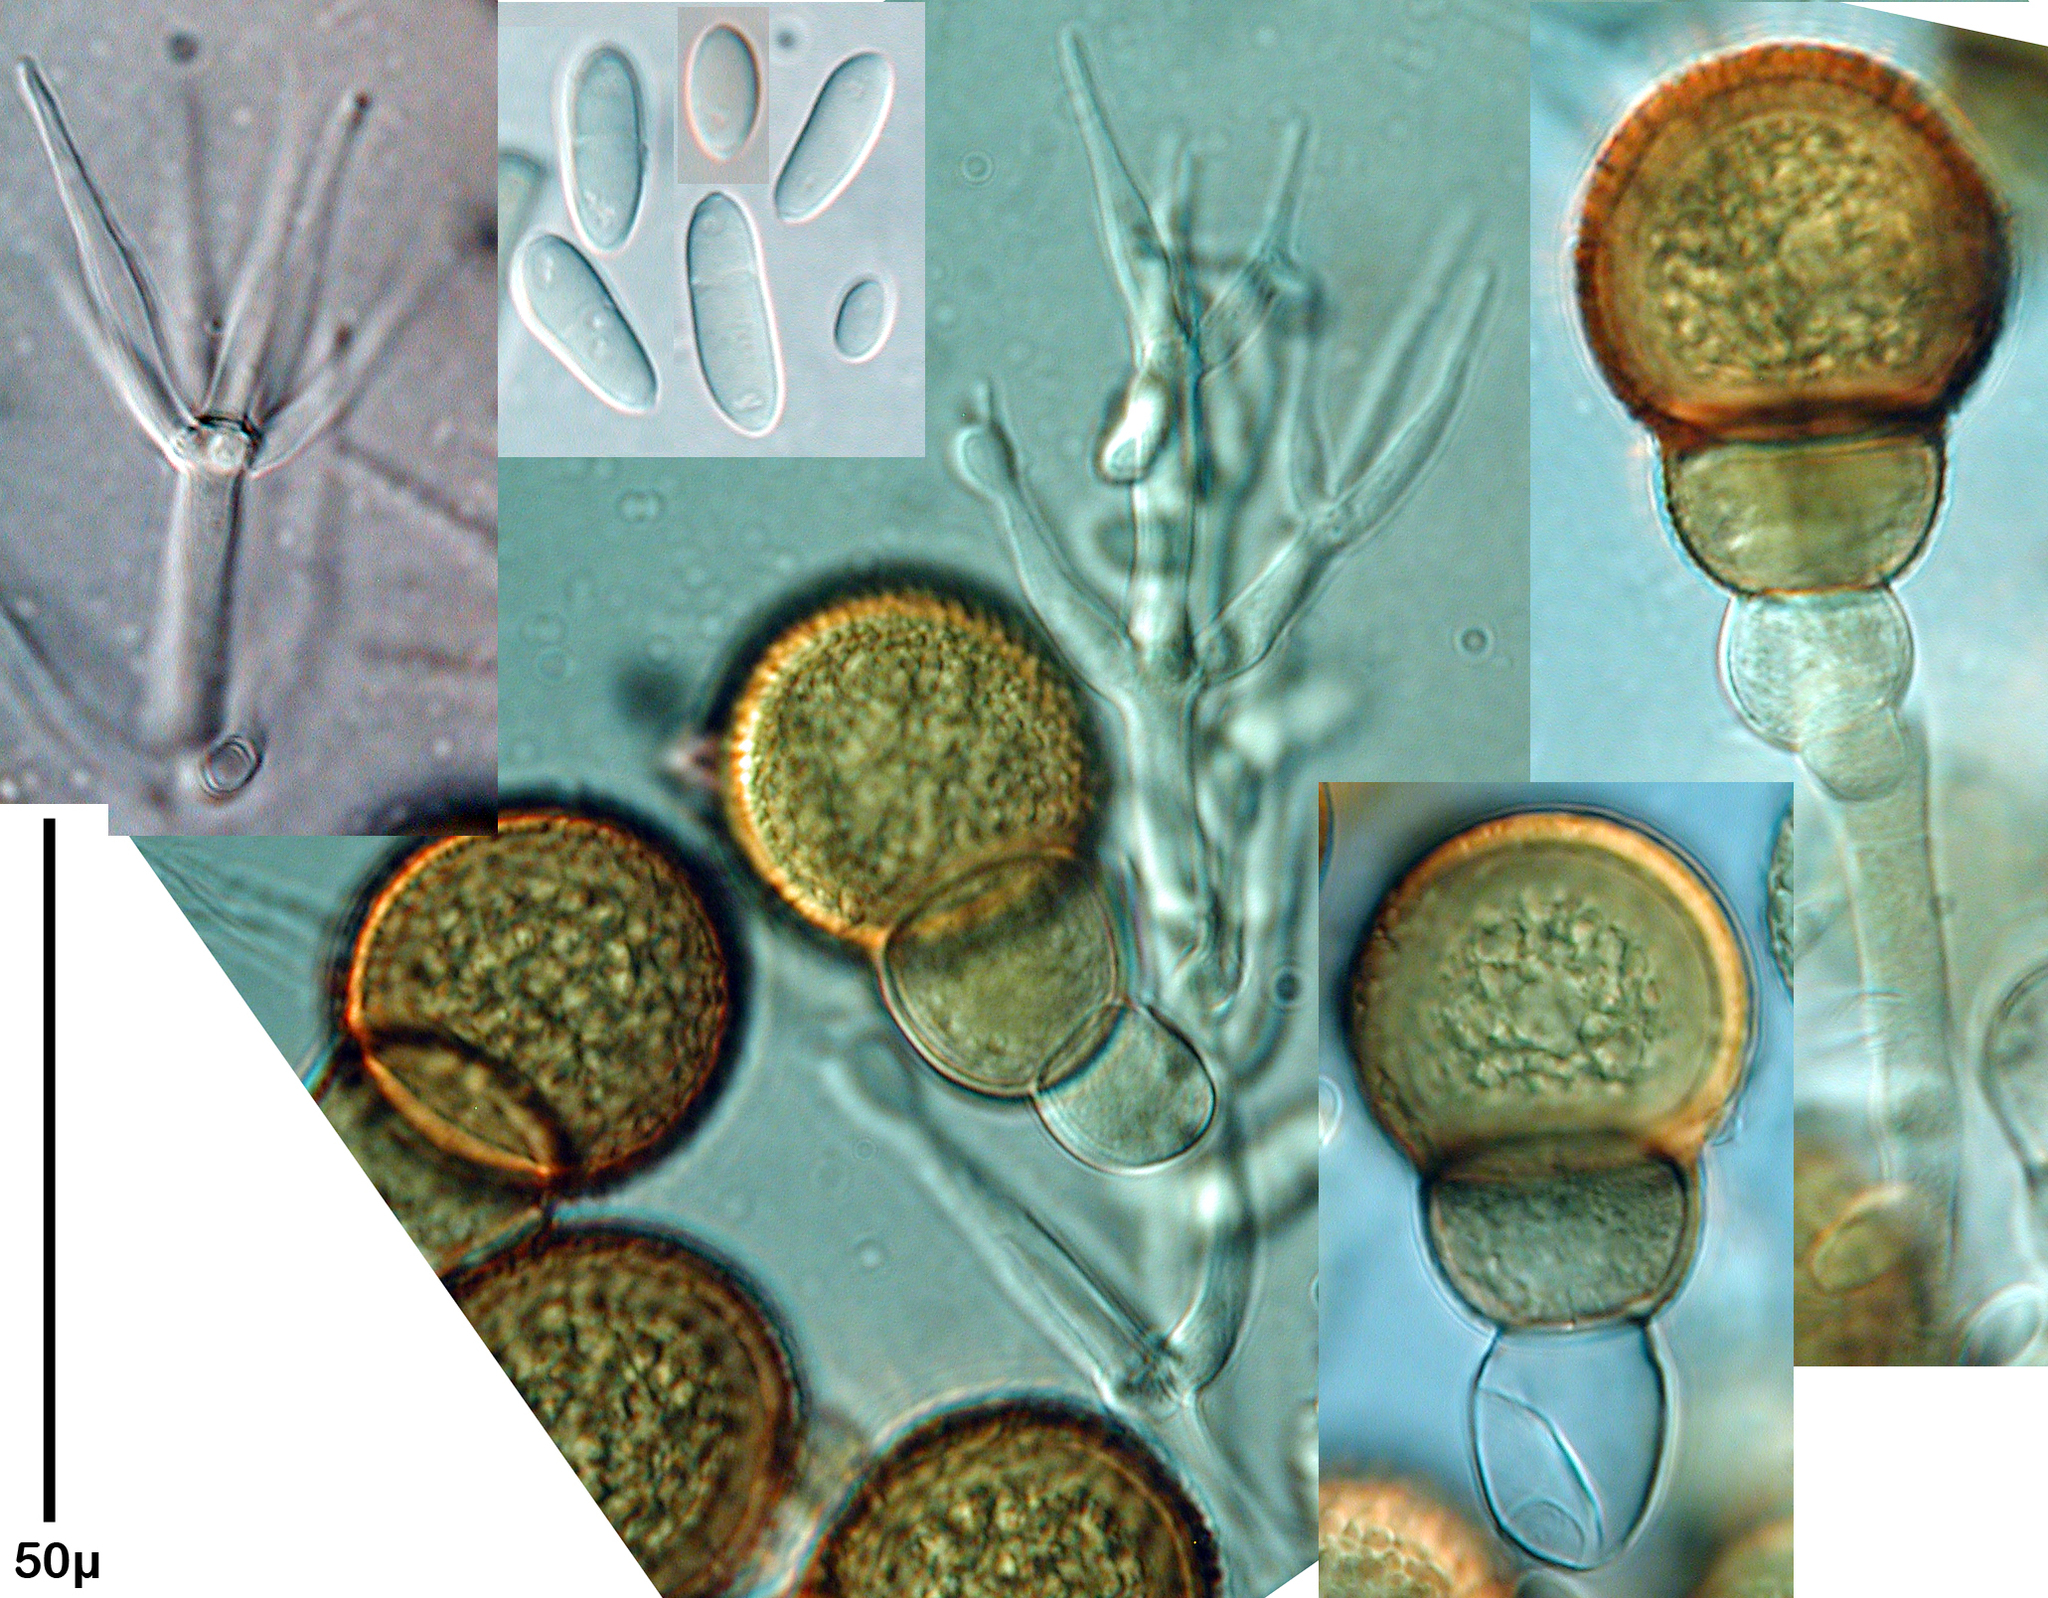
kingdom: Fungi
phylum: Ascomycota
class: Sordariomycetes
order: Hypocreales
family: Hypocreaceae
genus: Mycogone
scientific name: Mycogone rosea
